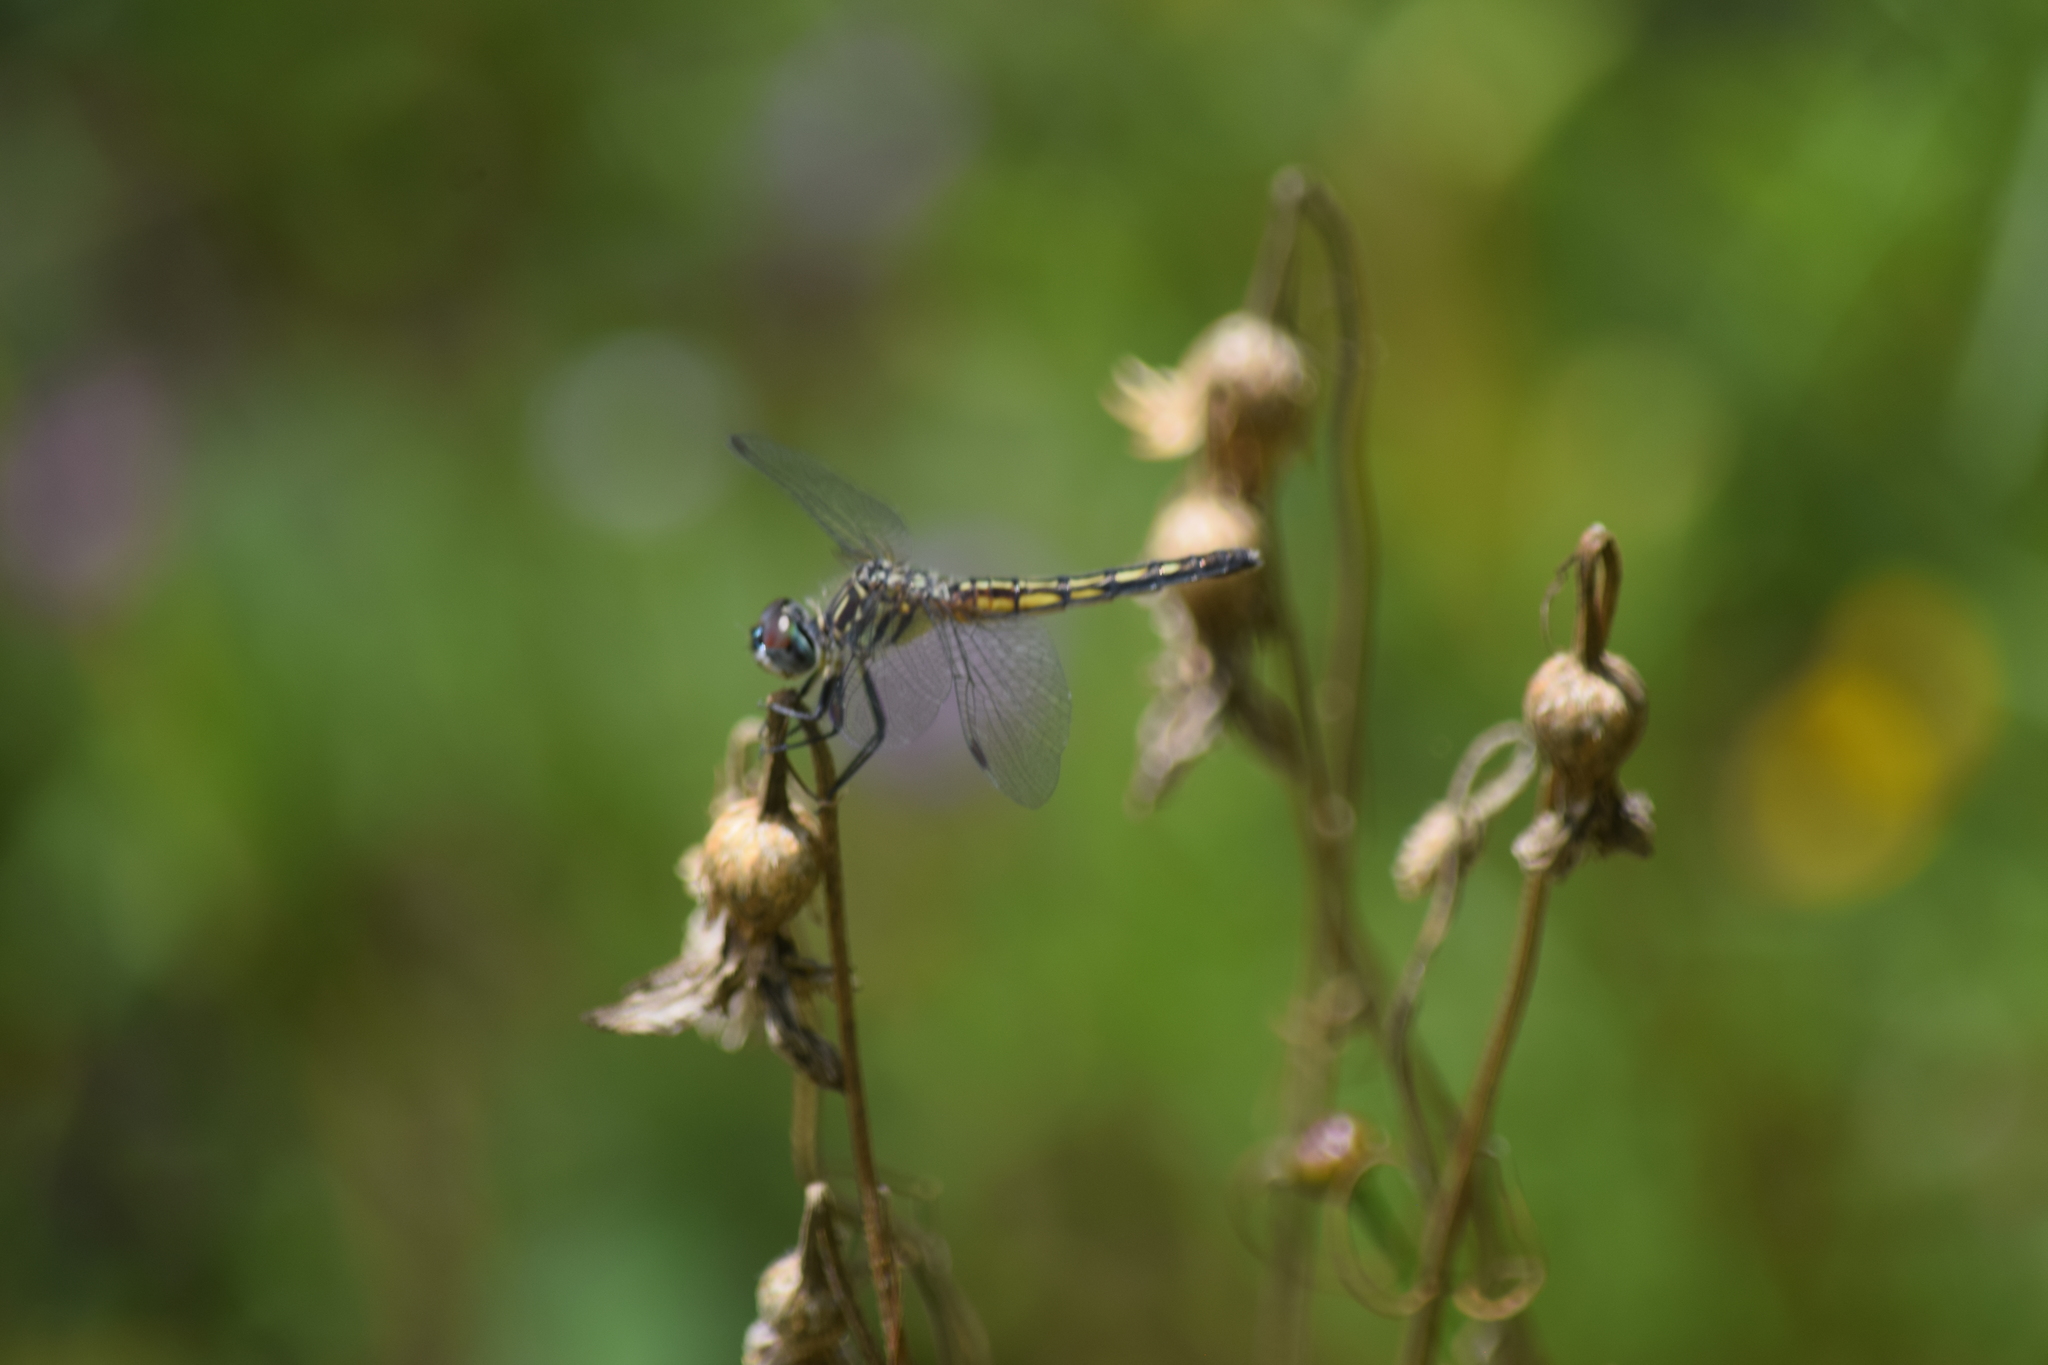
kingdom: Animalia
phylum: Arthropoda
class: Insecta
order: Odonata
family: Libellulidae
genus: Pachydiplax
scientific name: Pachydiplax longipennis
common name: Blue dasher
